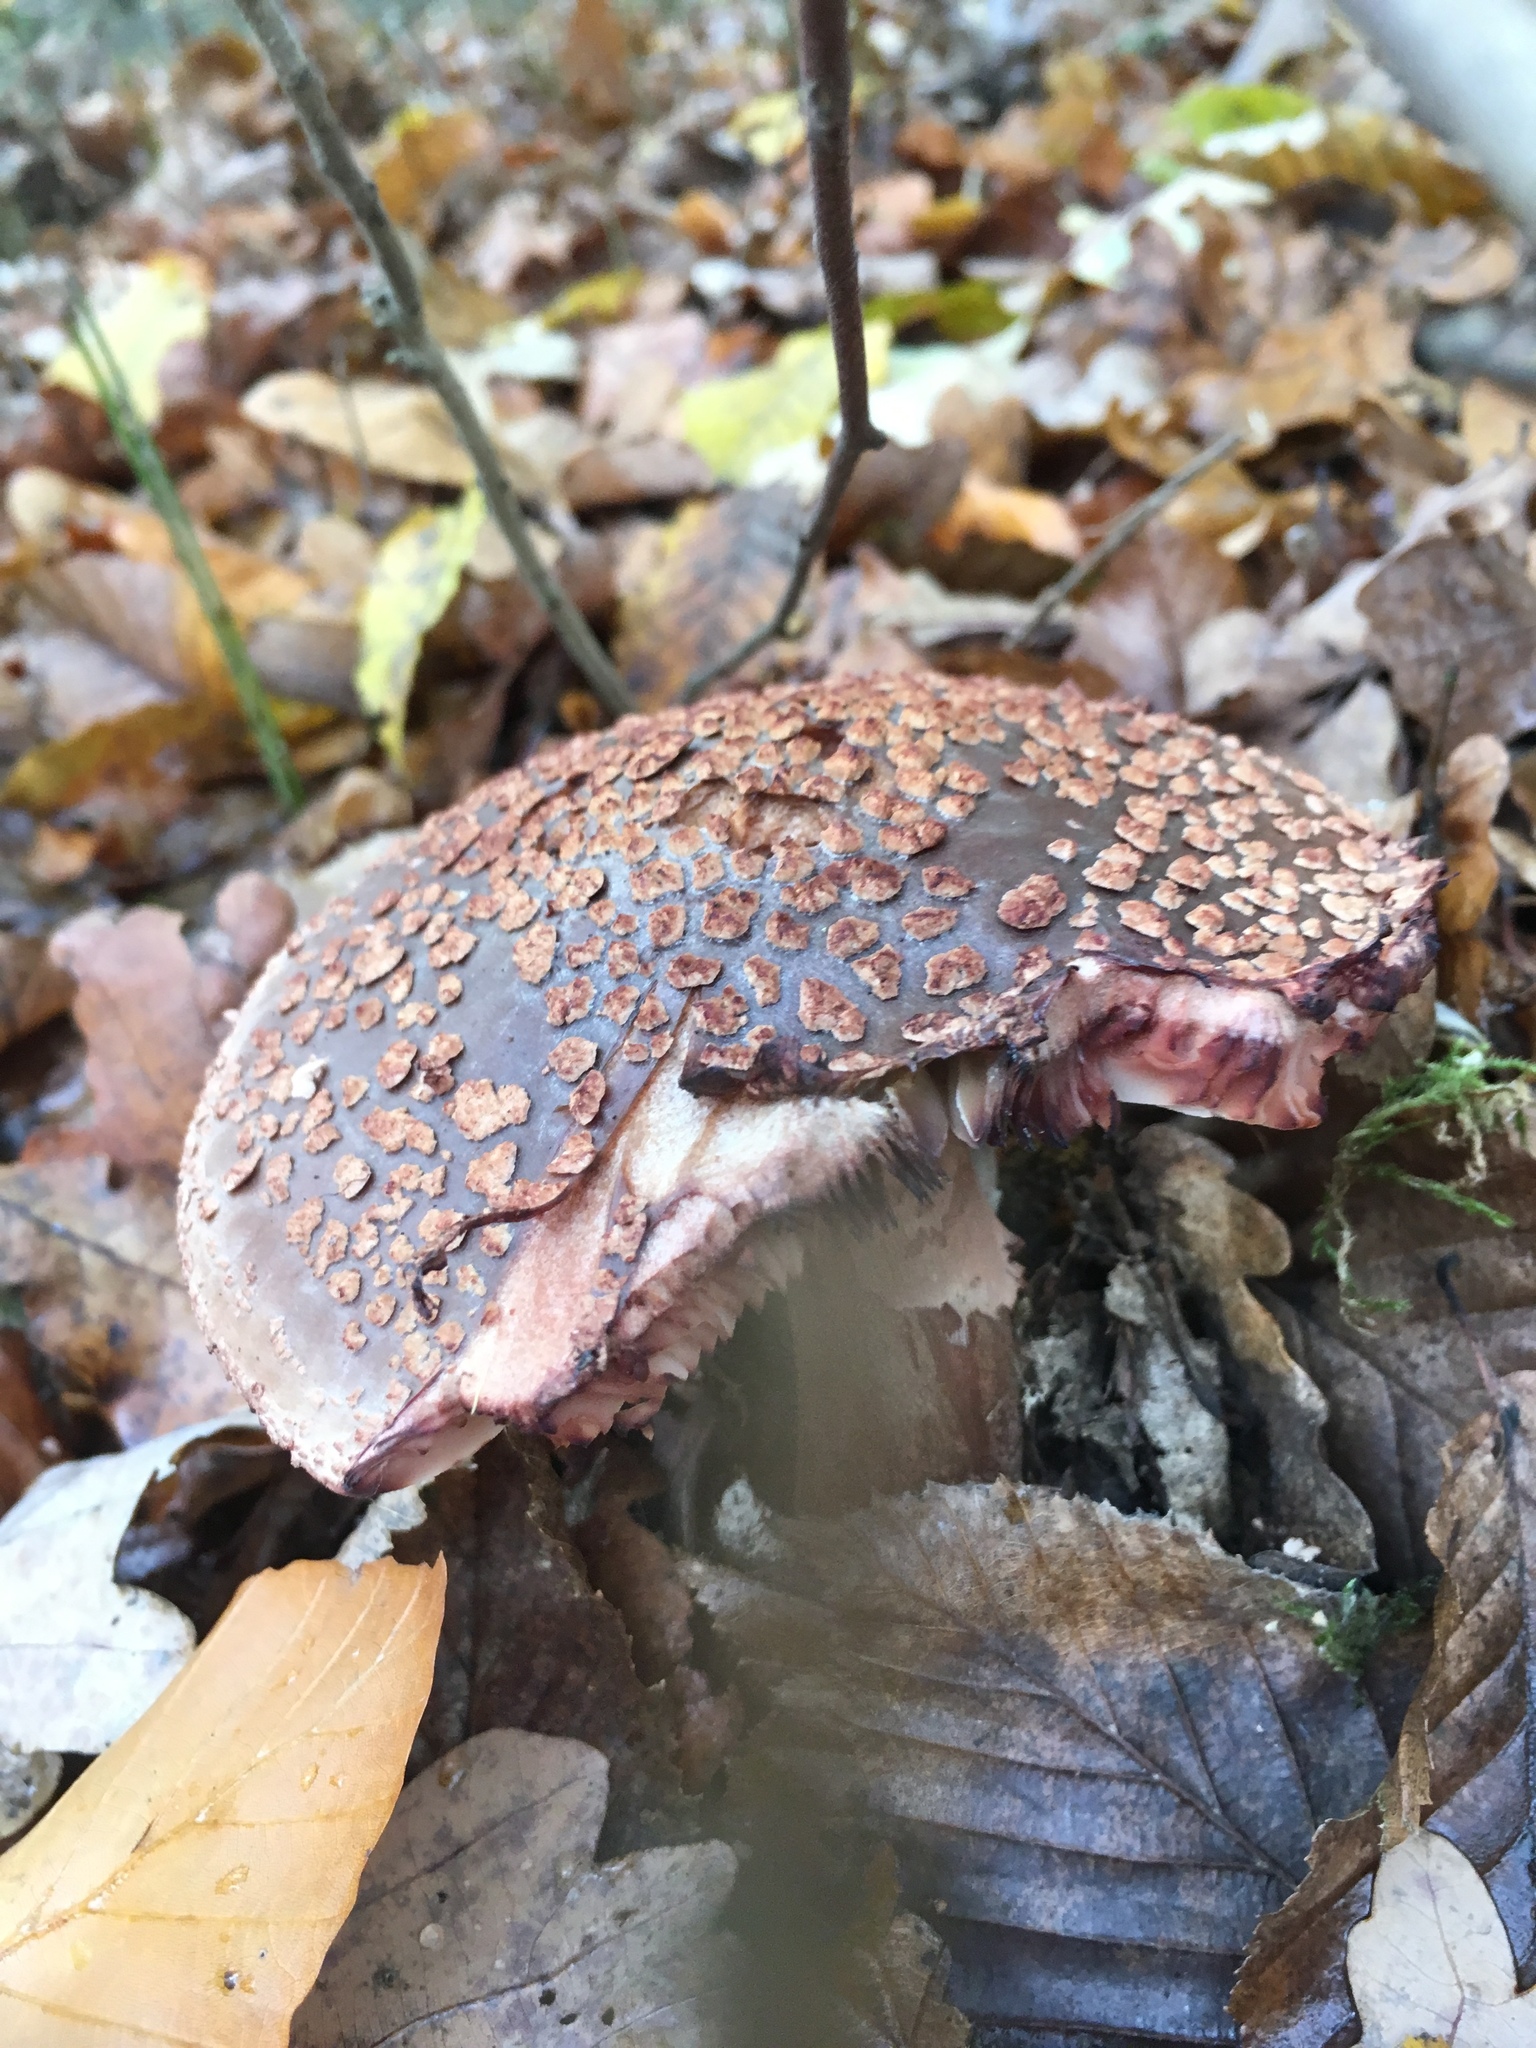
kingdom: Fungi
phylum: Basidiomycota
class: Agaricomycetes
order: Agaricales
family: Amanitaceae
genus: Amanita
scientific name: Amanita rubescens
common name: Blusher
